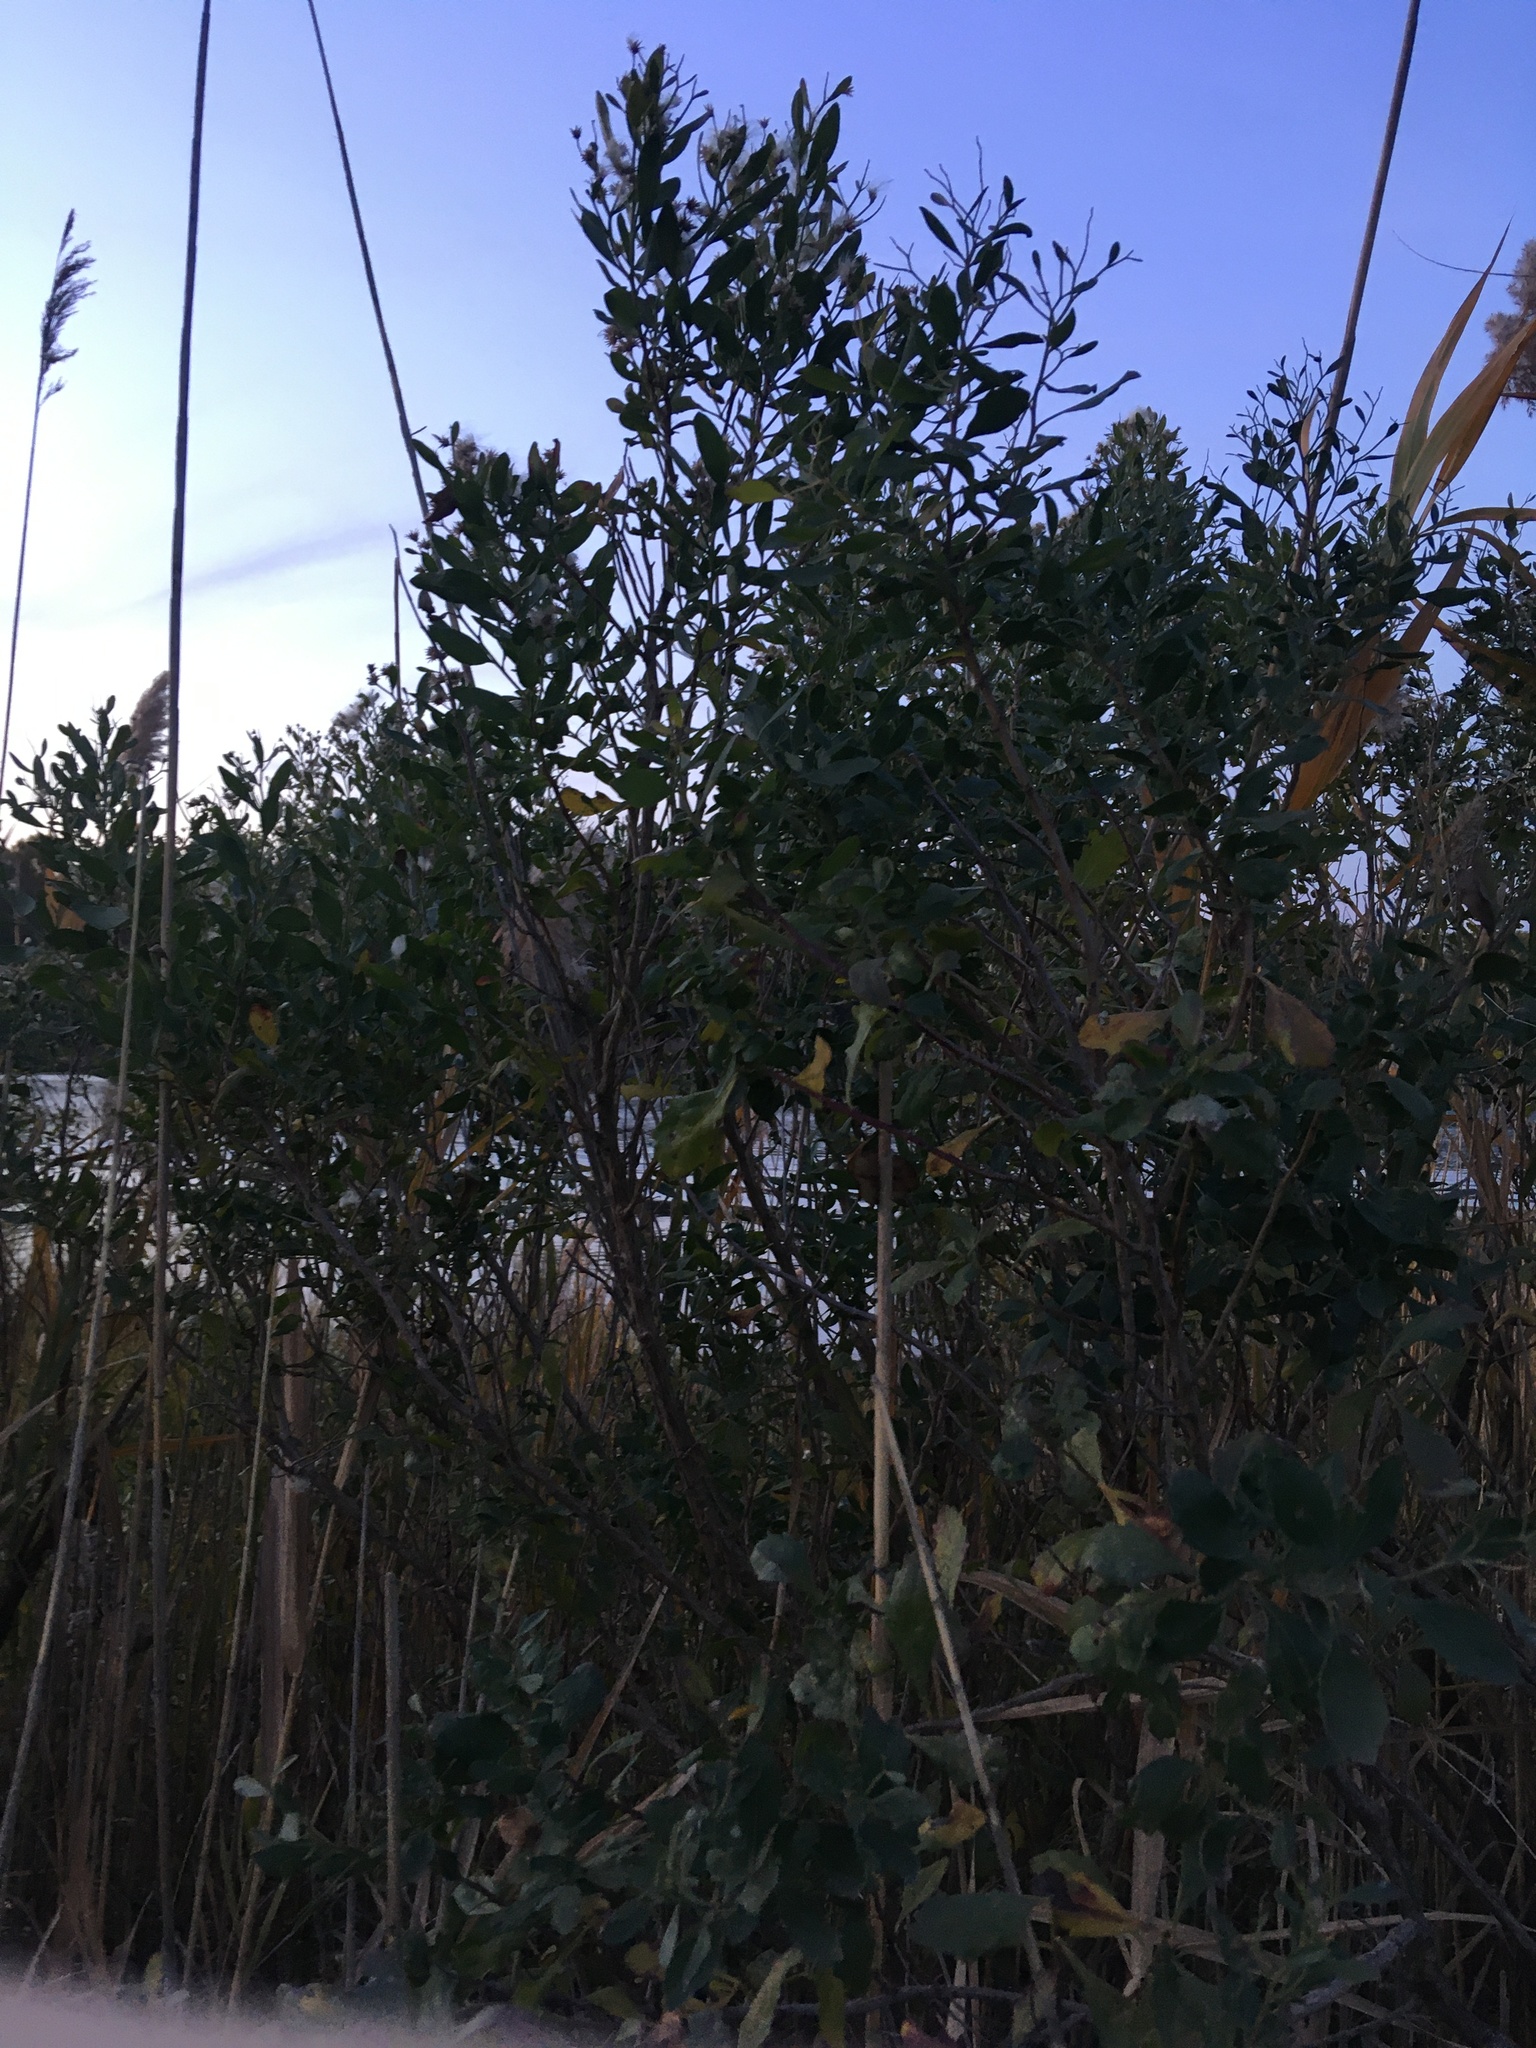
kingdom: Plantae
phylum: Tracheophyta
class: Magnoliopsida
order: Asterales
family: Asteraceae
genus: Baccharis
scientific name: Baccharis halimifolia
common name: Eastern baccharis
